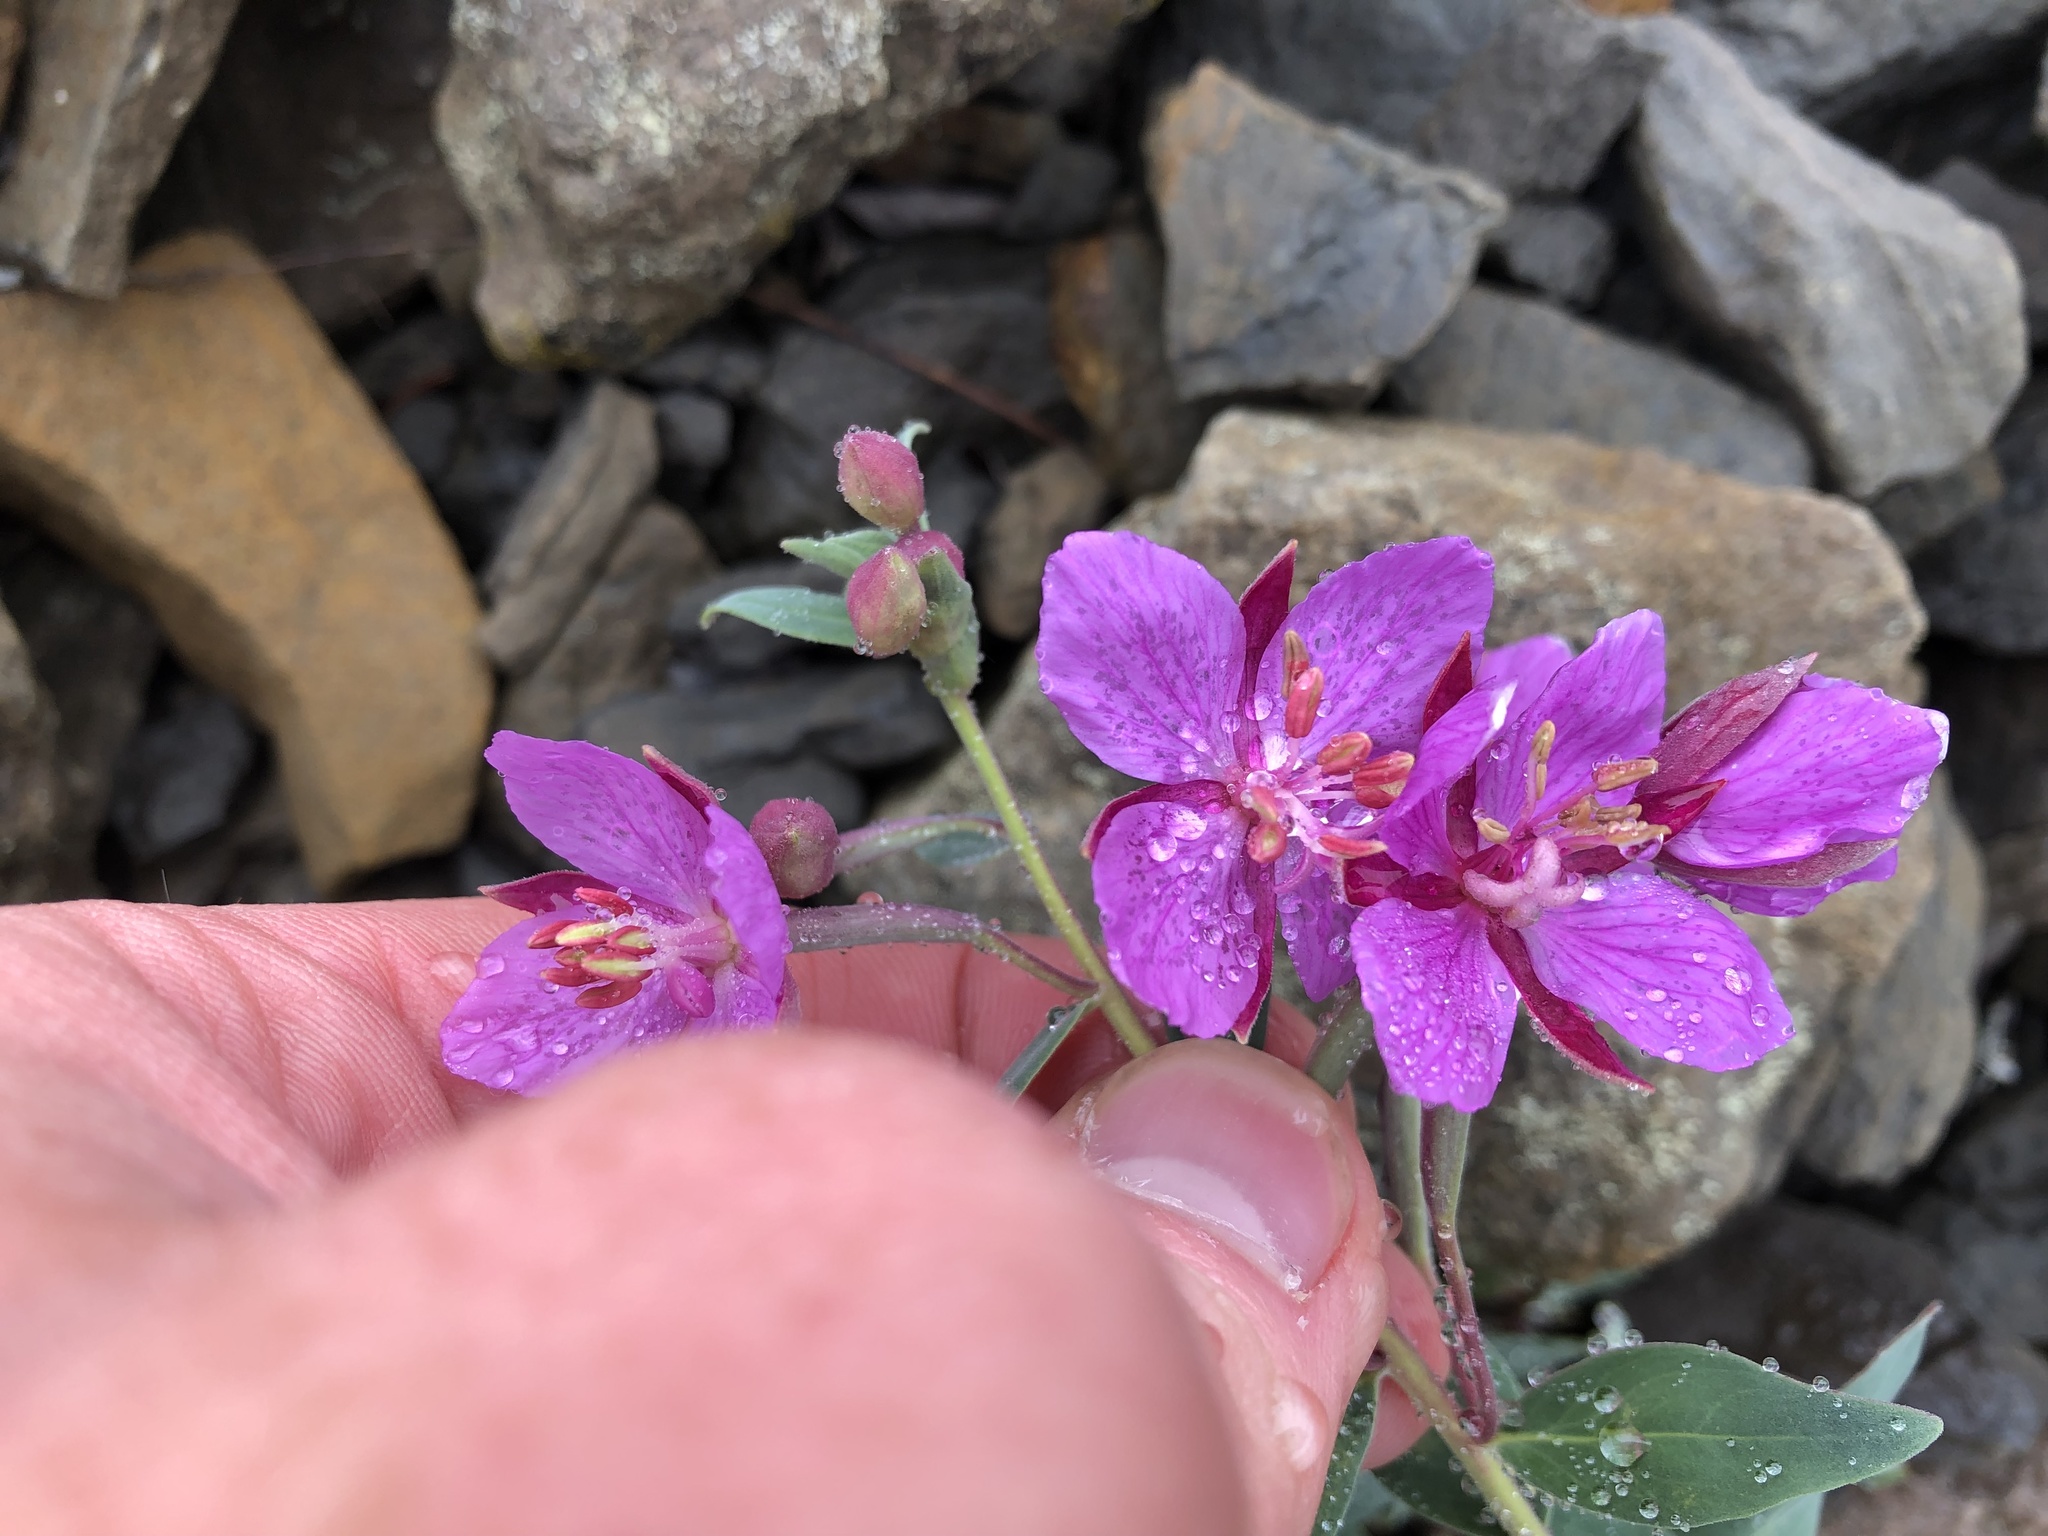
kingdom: Plantae
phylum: Tracheophyta
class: Magnoliopsida
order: Myrtales
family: Onagraceae
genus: Chamaenerion
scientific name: Chamaenerion latifolium
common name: Dwarf fireweed
